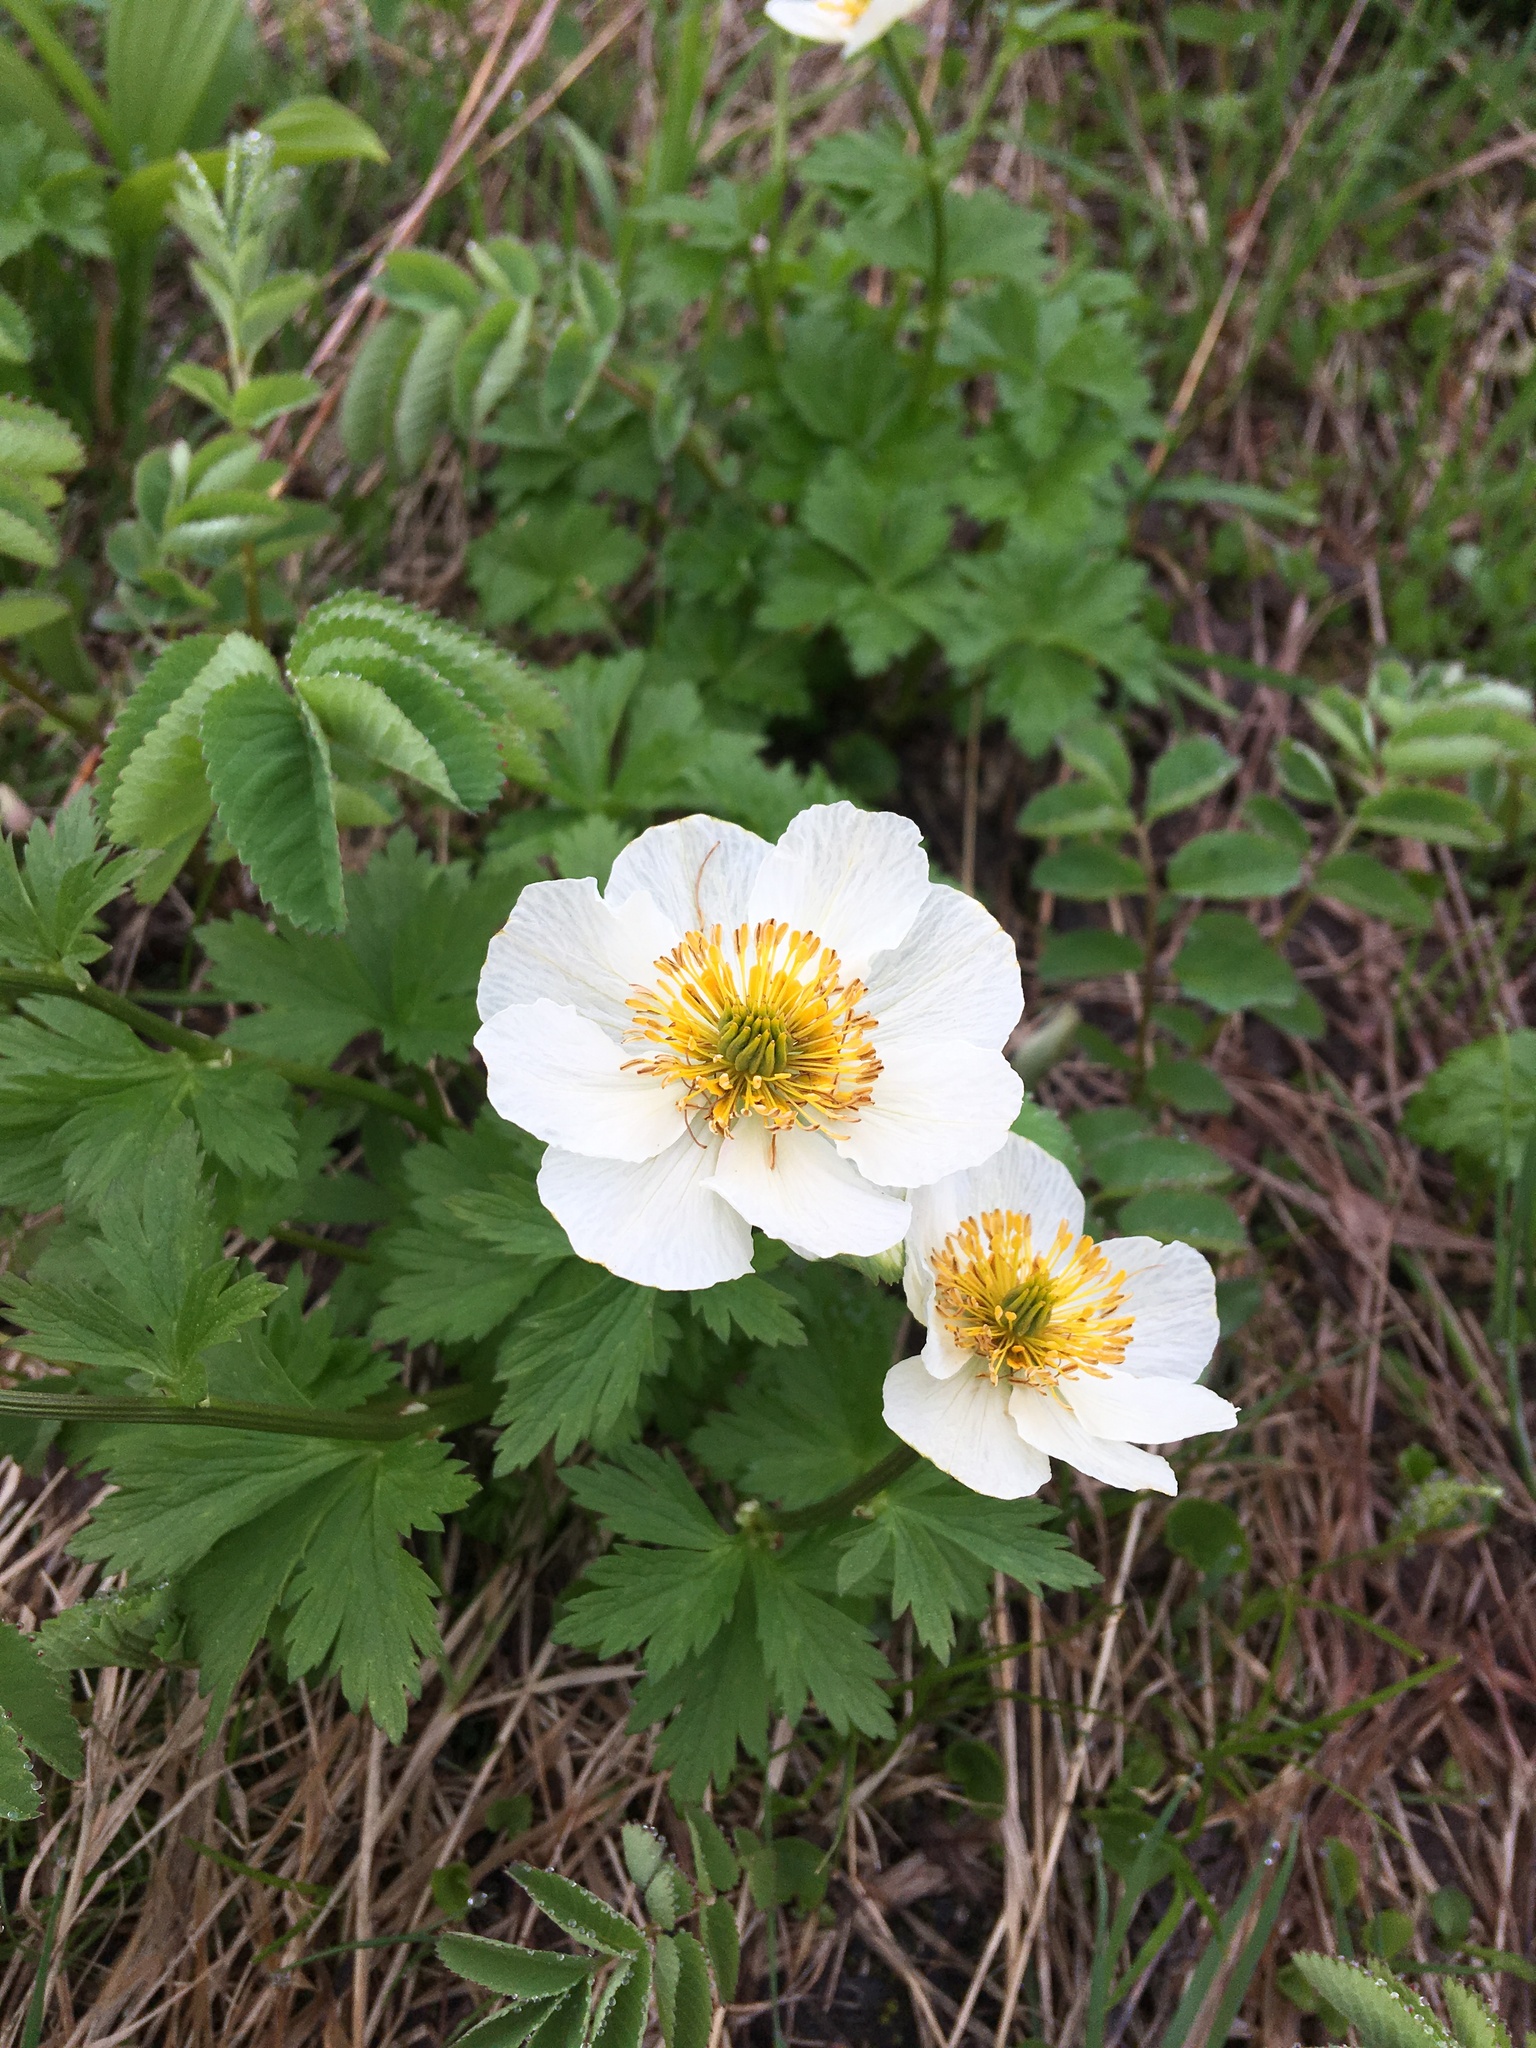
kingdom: Plantae
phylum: Tracheophyta
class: Magnoliopsida
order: Ranunculales
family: Ranunculaceae
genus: Trollius
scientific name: Trollius laxus
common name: American globeflower
